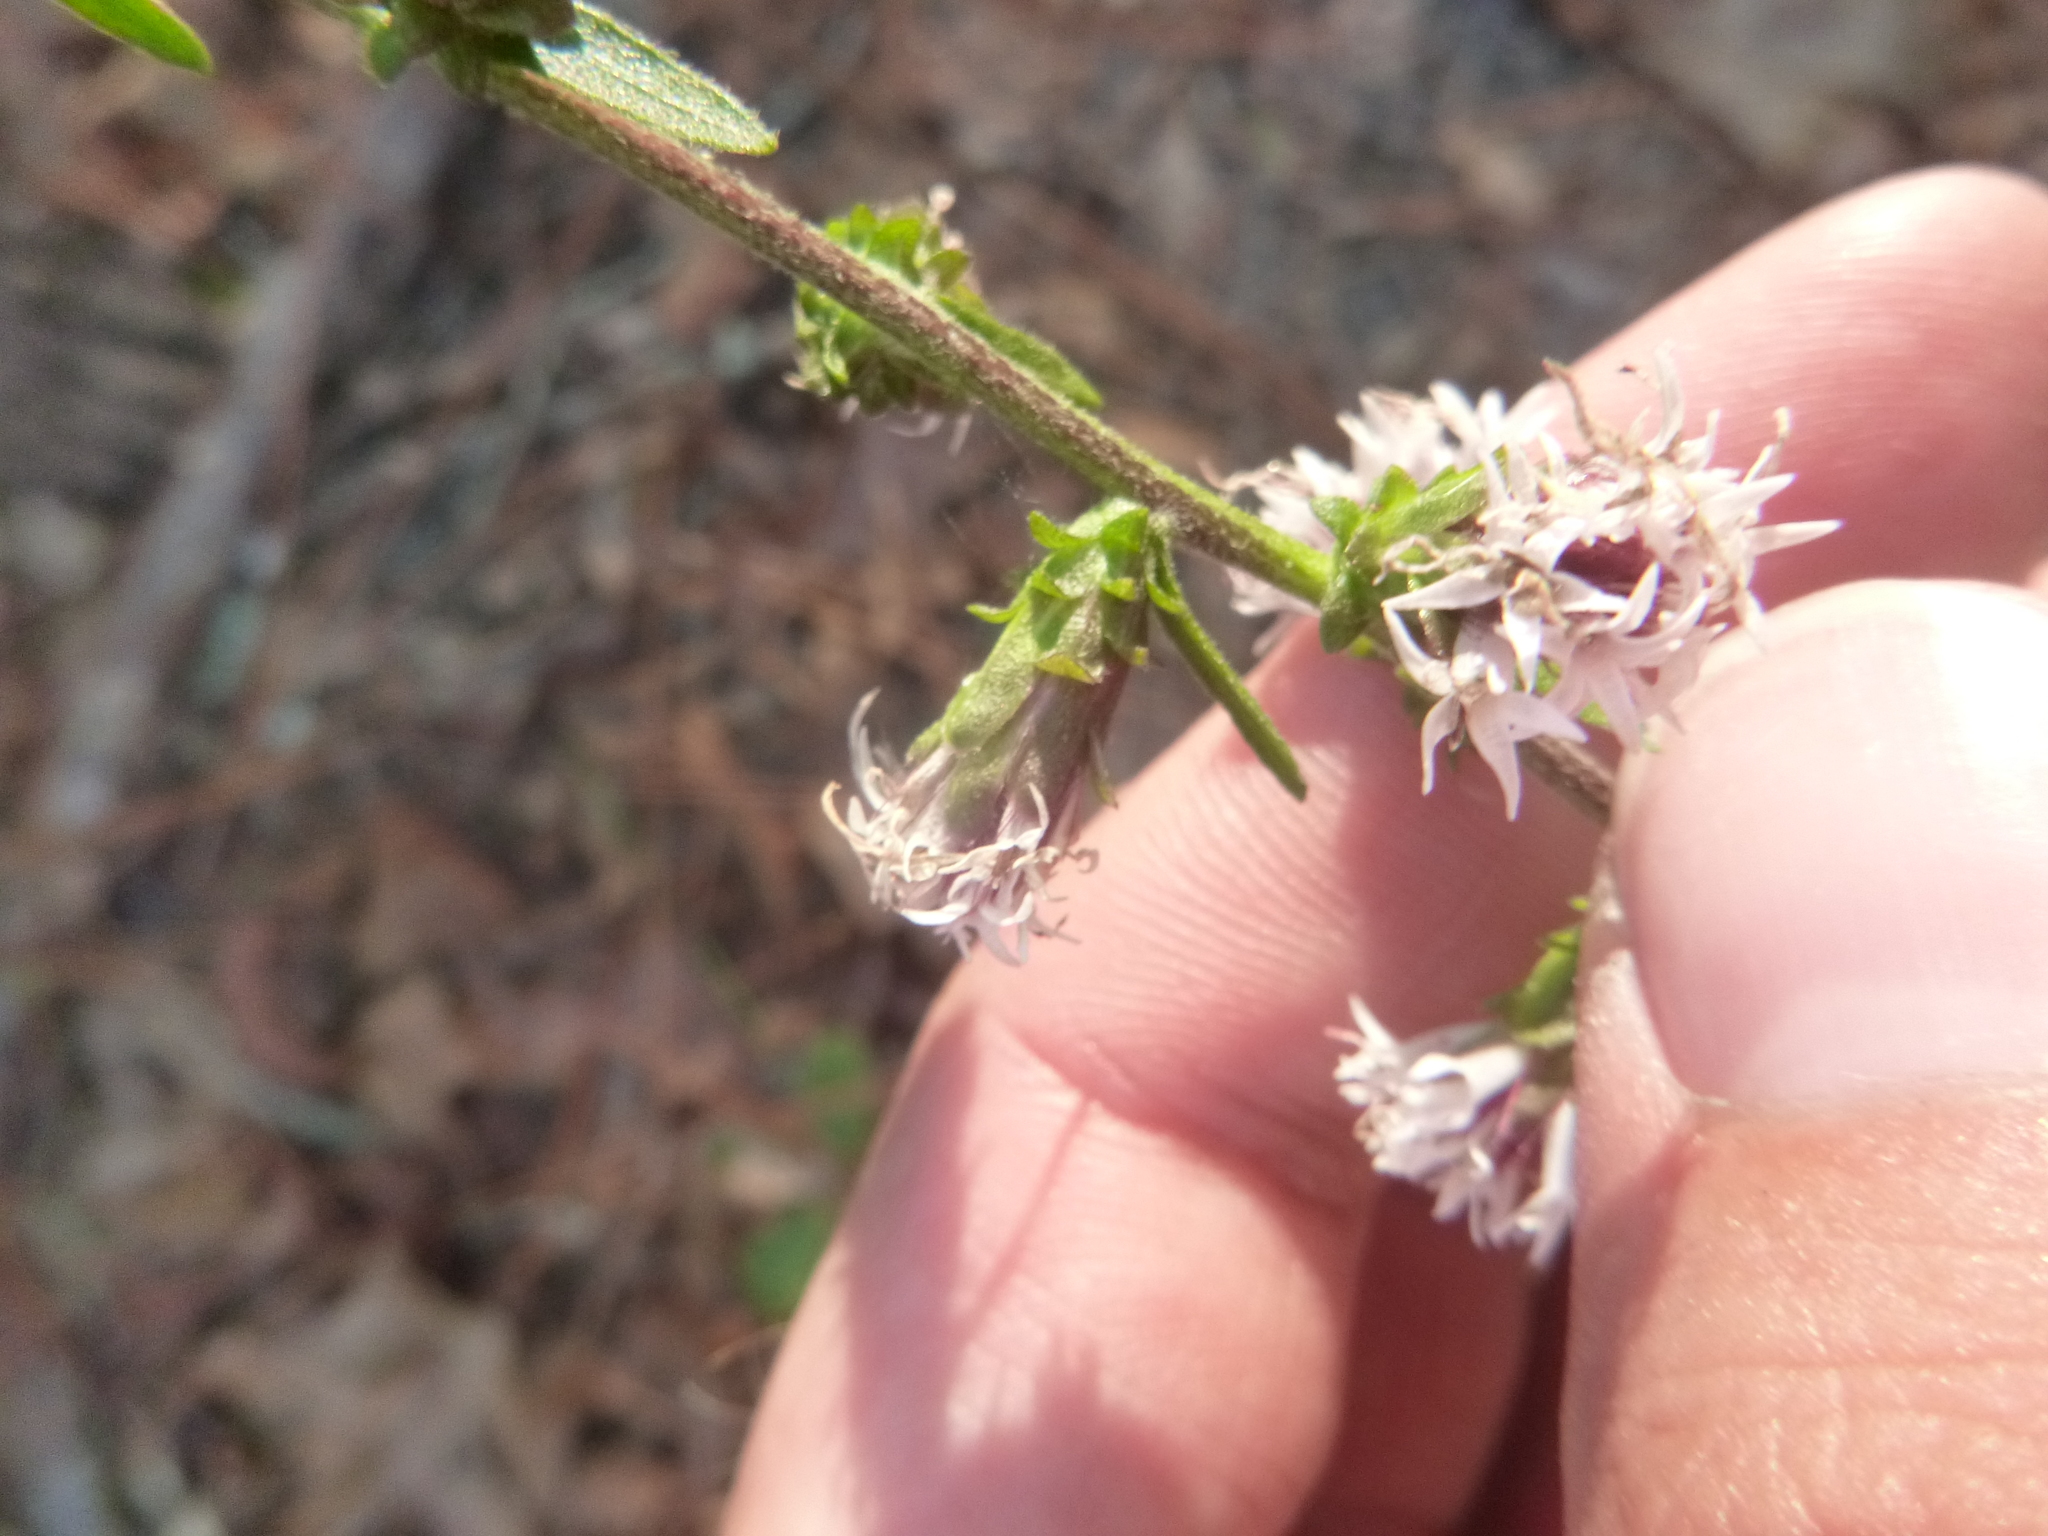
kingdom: Plantae
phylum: Tracheophyta
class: Magnoliopsida
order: Asterales
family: Asteraceae
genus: Liatris
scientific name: Liatris squarrulosa
